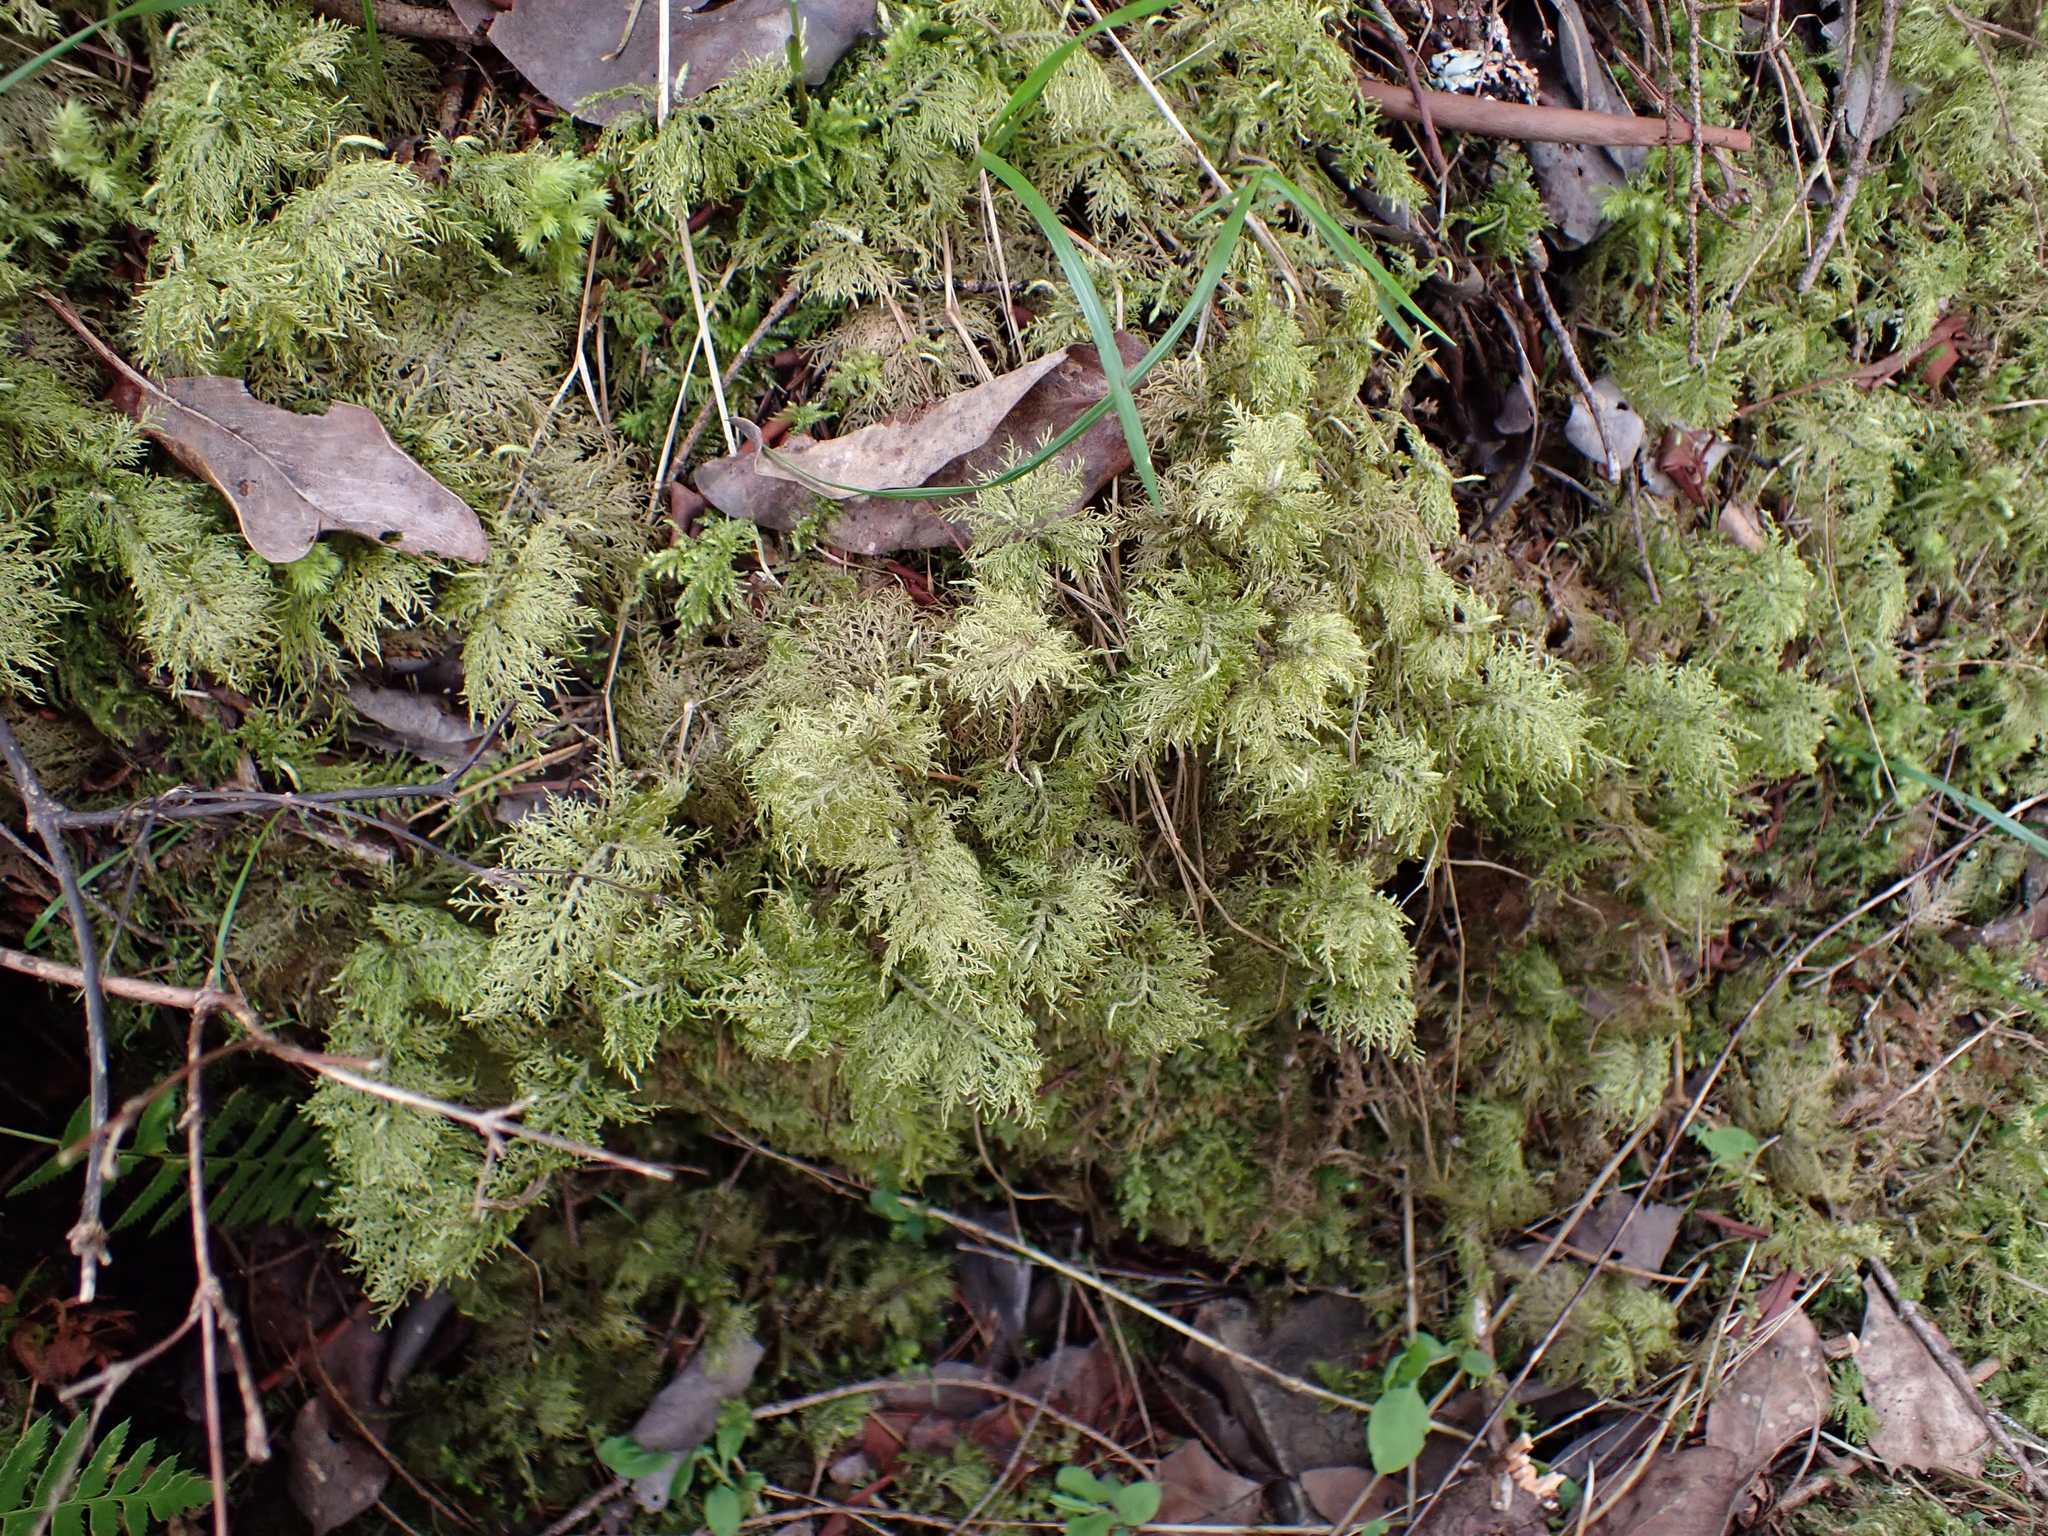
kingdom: Plantae
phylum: Bryophyta
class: Bryopsida
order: Hypnales
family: Hylocomiaceae
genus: Hylocomium
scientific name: Hylocomium splendens
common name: Stairstep moss
